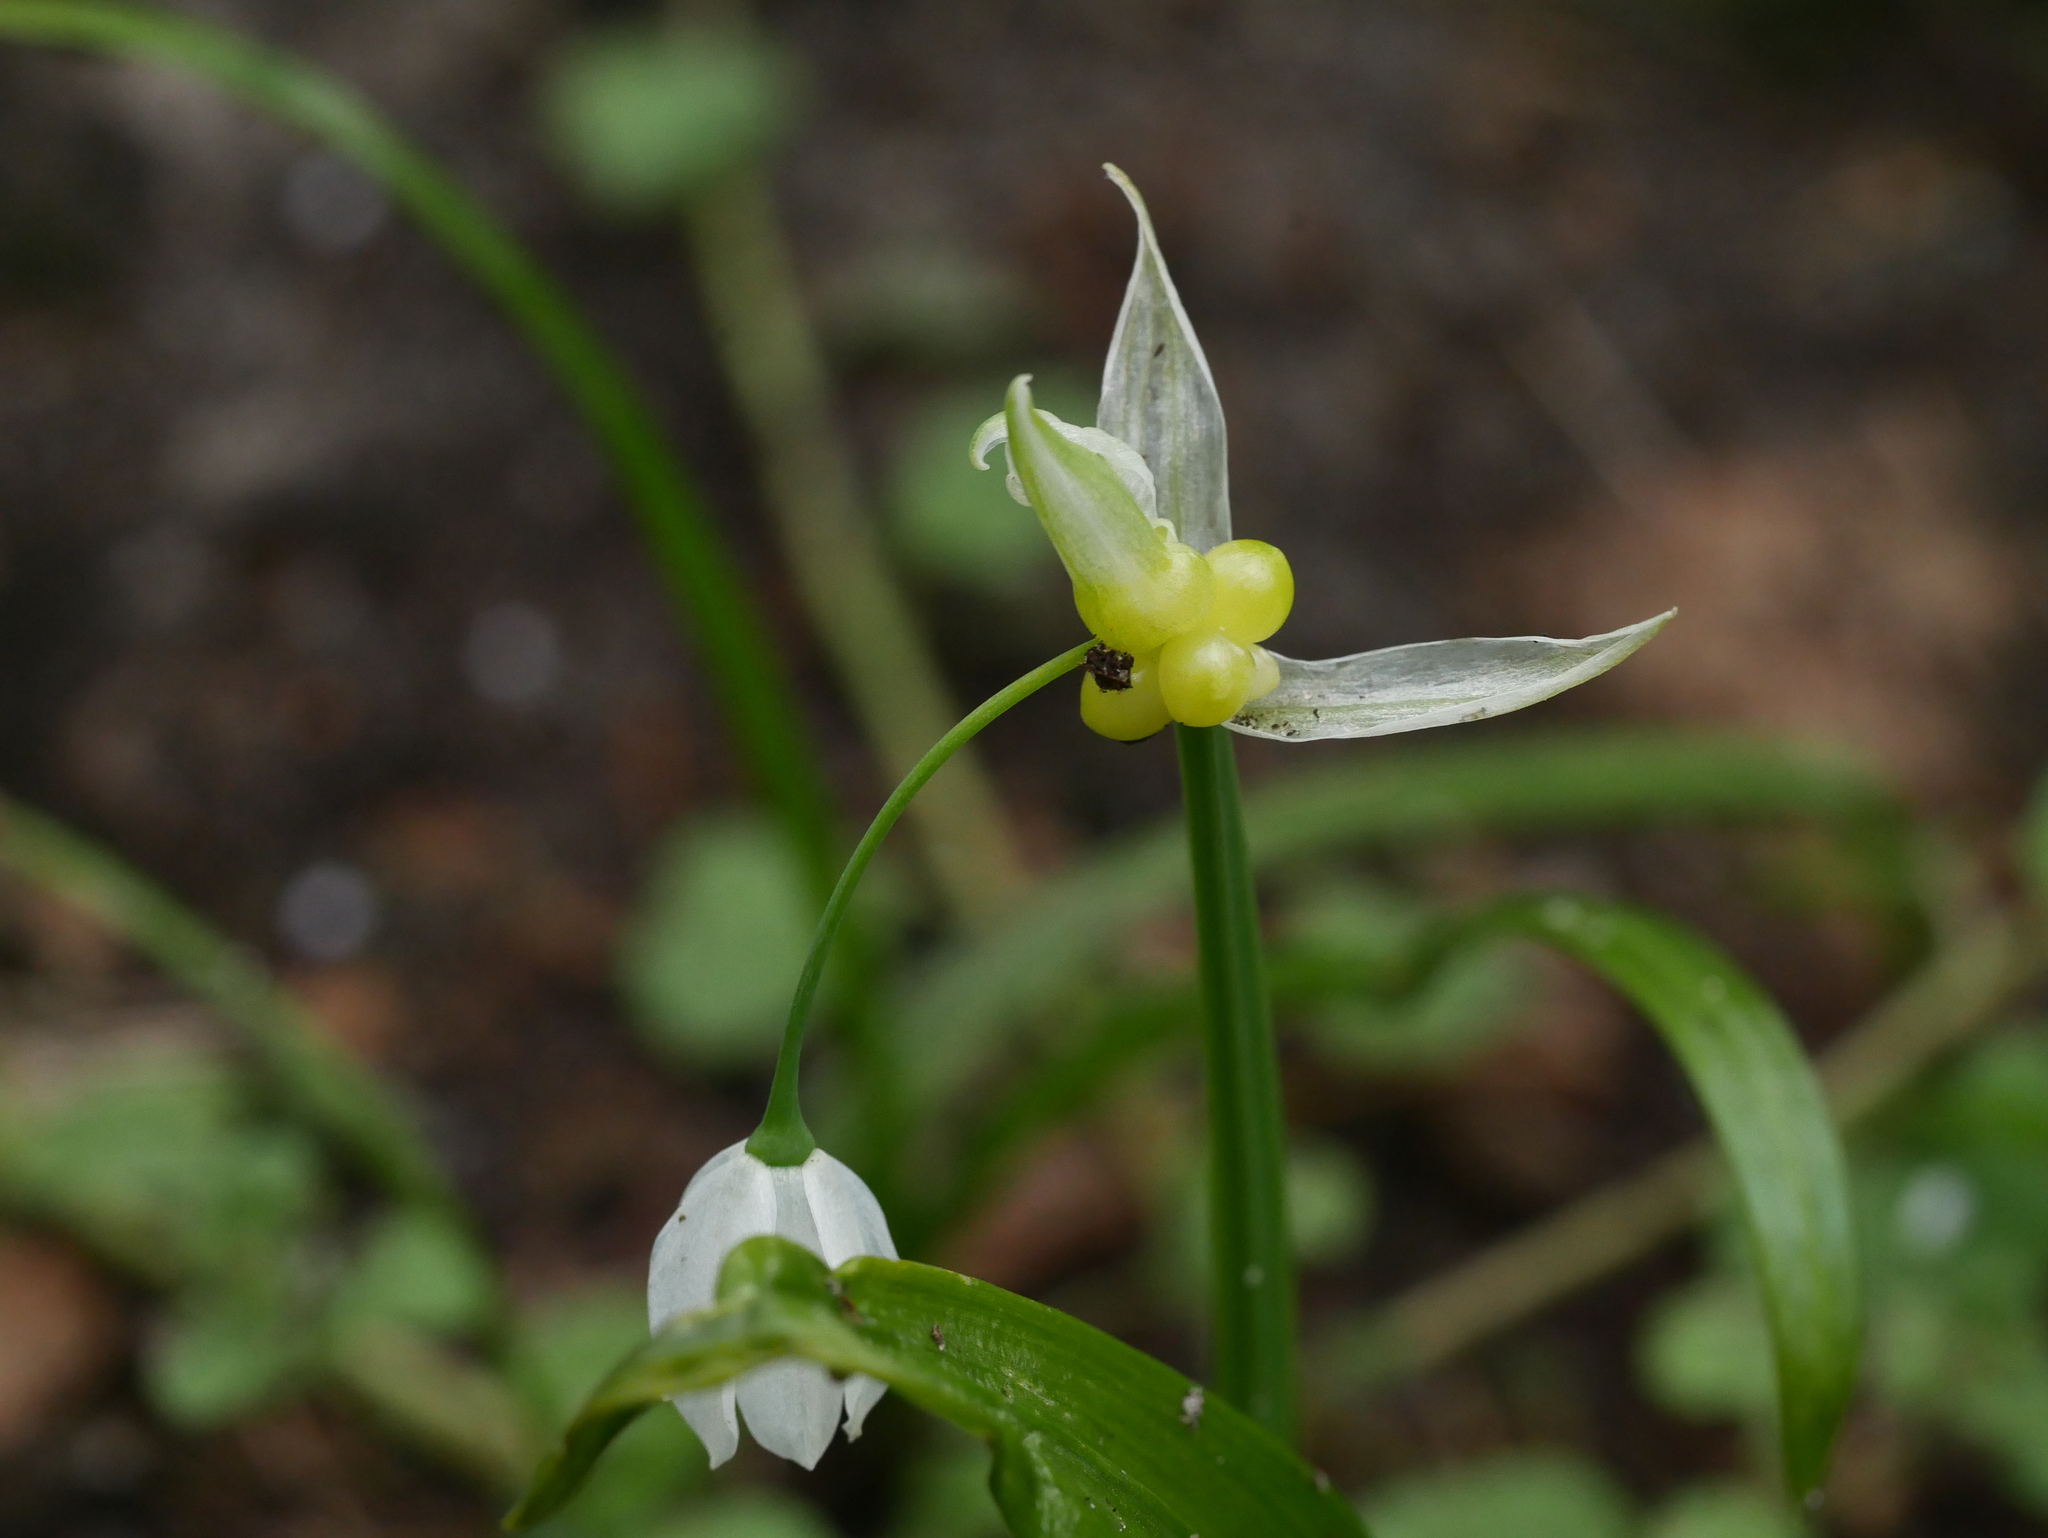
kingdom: Plantae
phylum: Tracheophyta
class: Liliopsida
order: Asparagales
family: Amaryllidaceae
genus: Allium
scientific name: Allium paradoxum
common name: Few-flowered garlic
